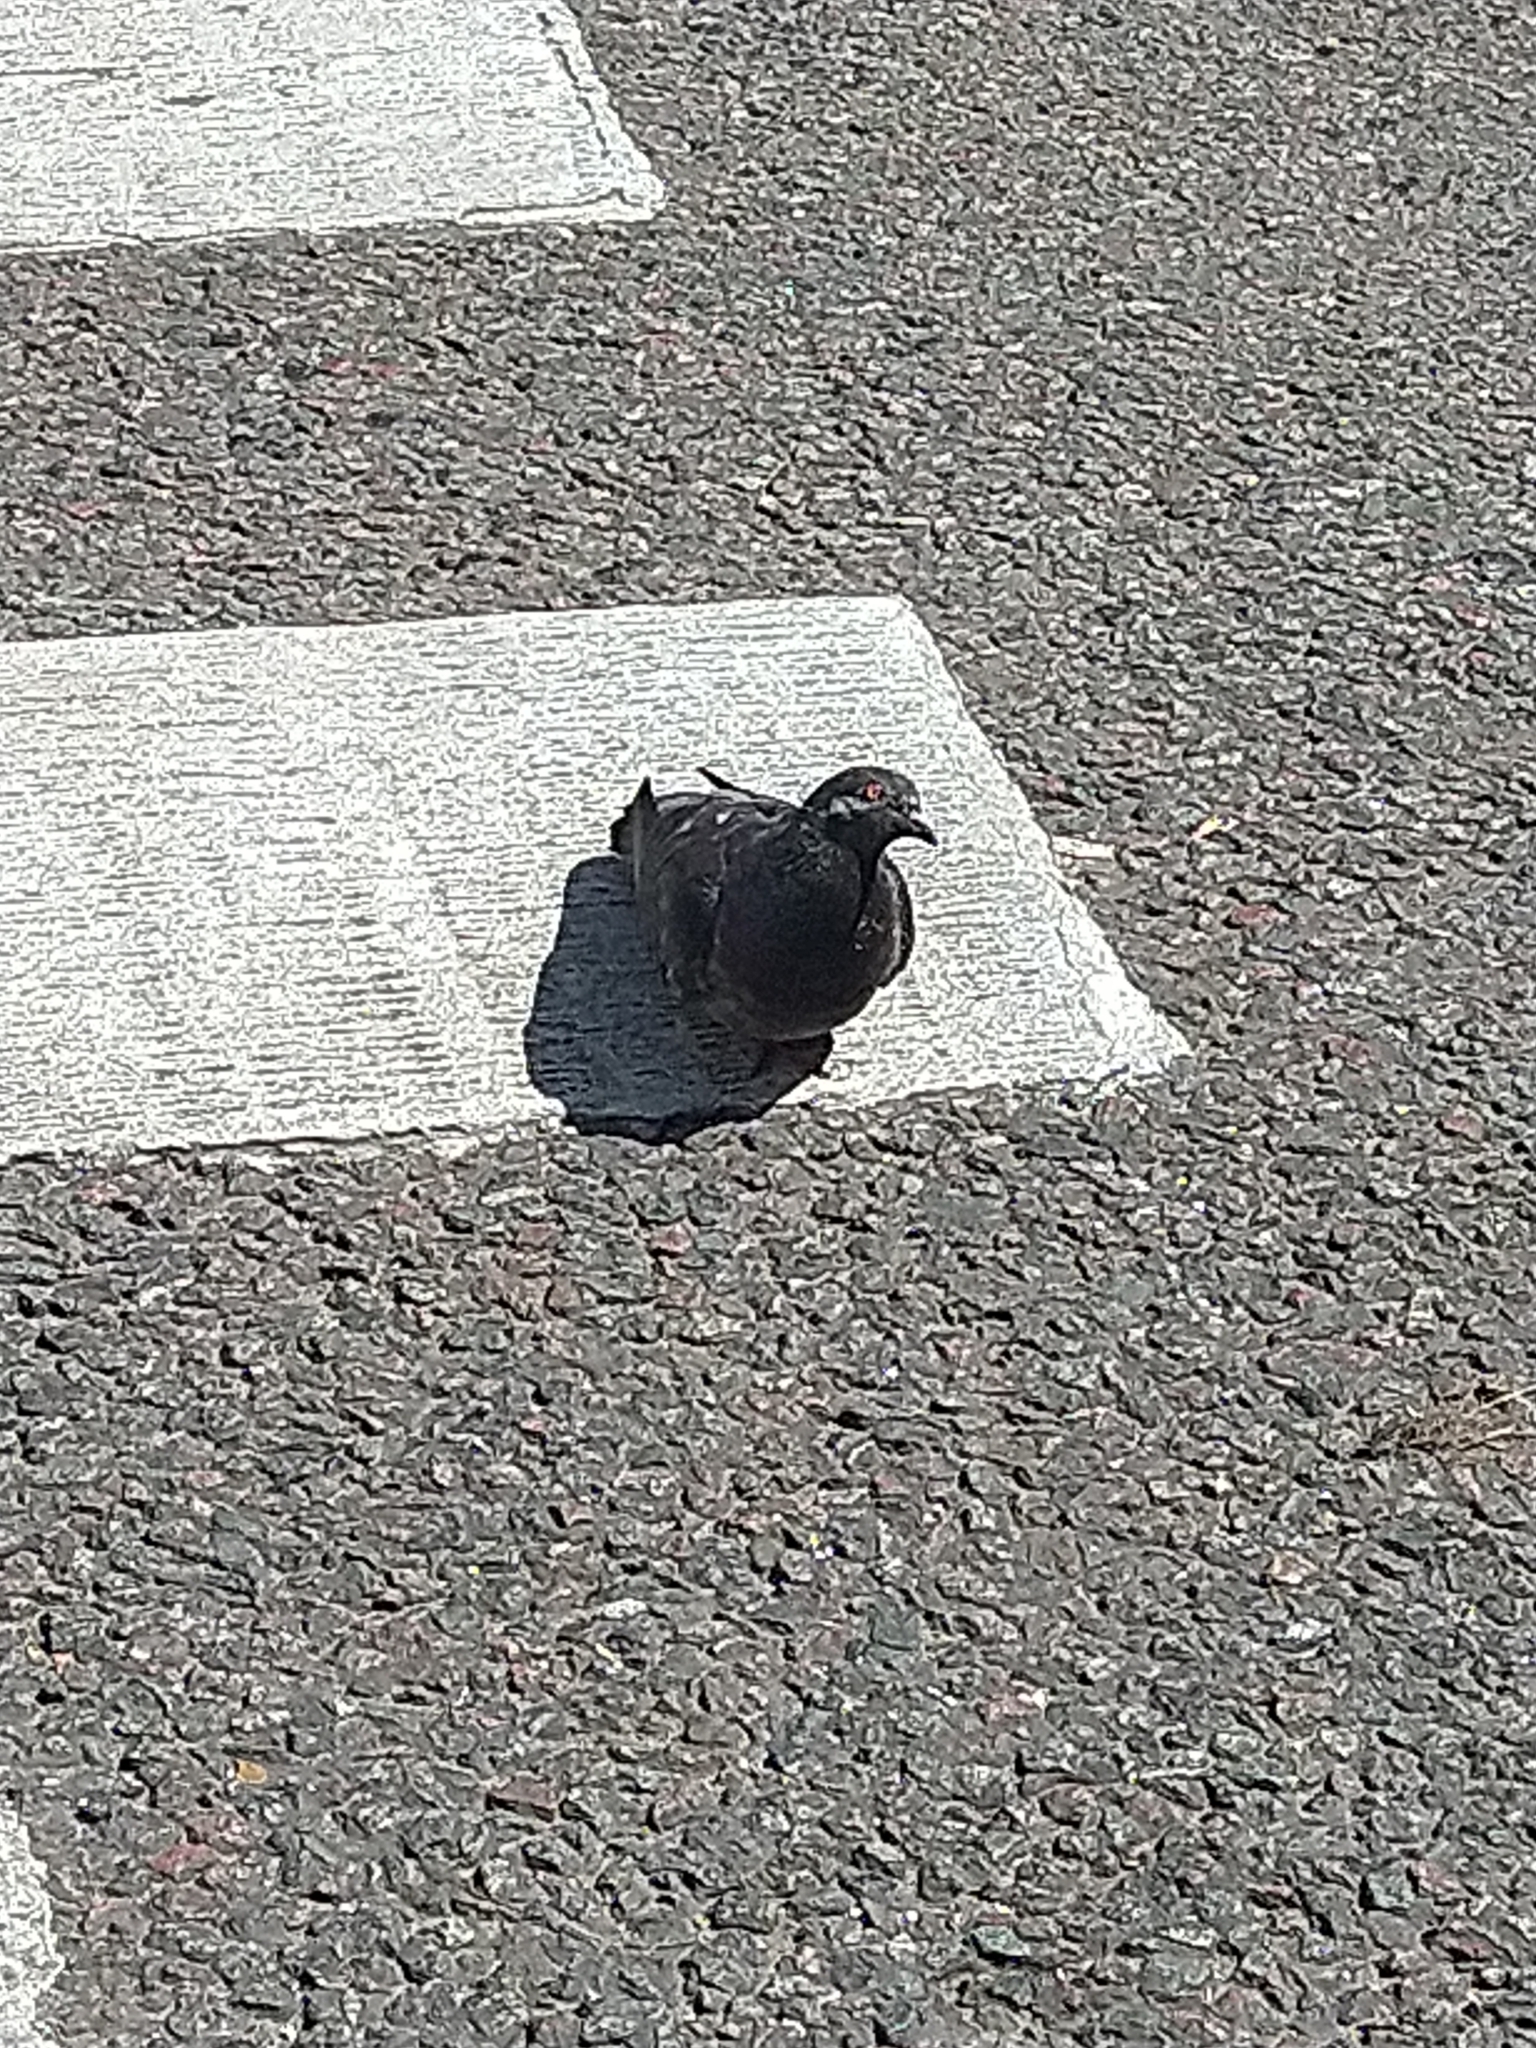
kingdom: Animalia
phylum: Chordata
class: Aves
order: Columbiformes
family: Columbidae
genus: Columba
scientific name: Columba livia
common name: Rock pigeon
